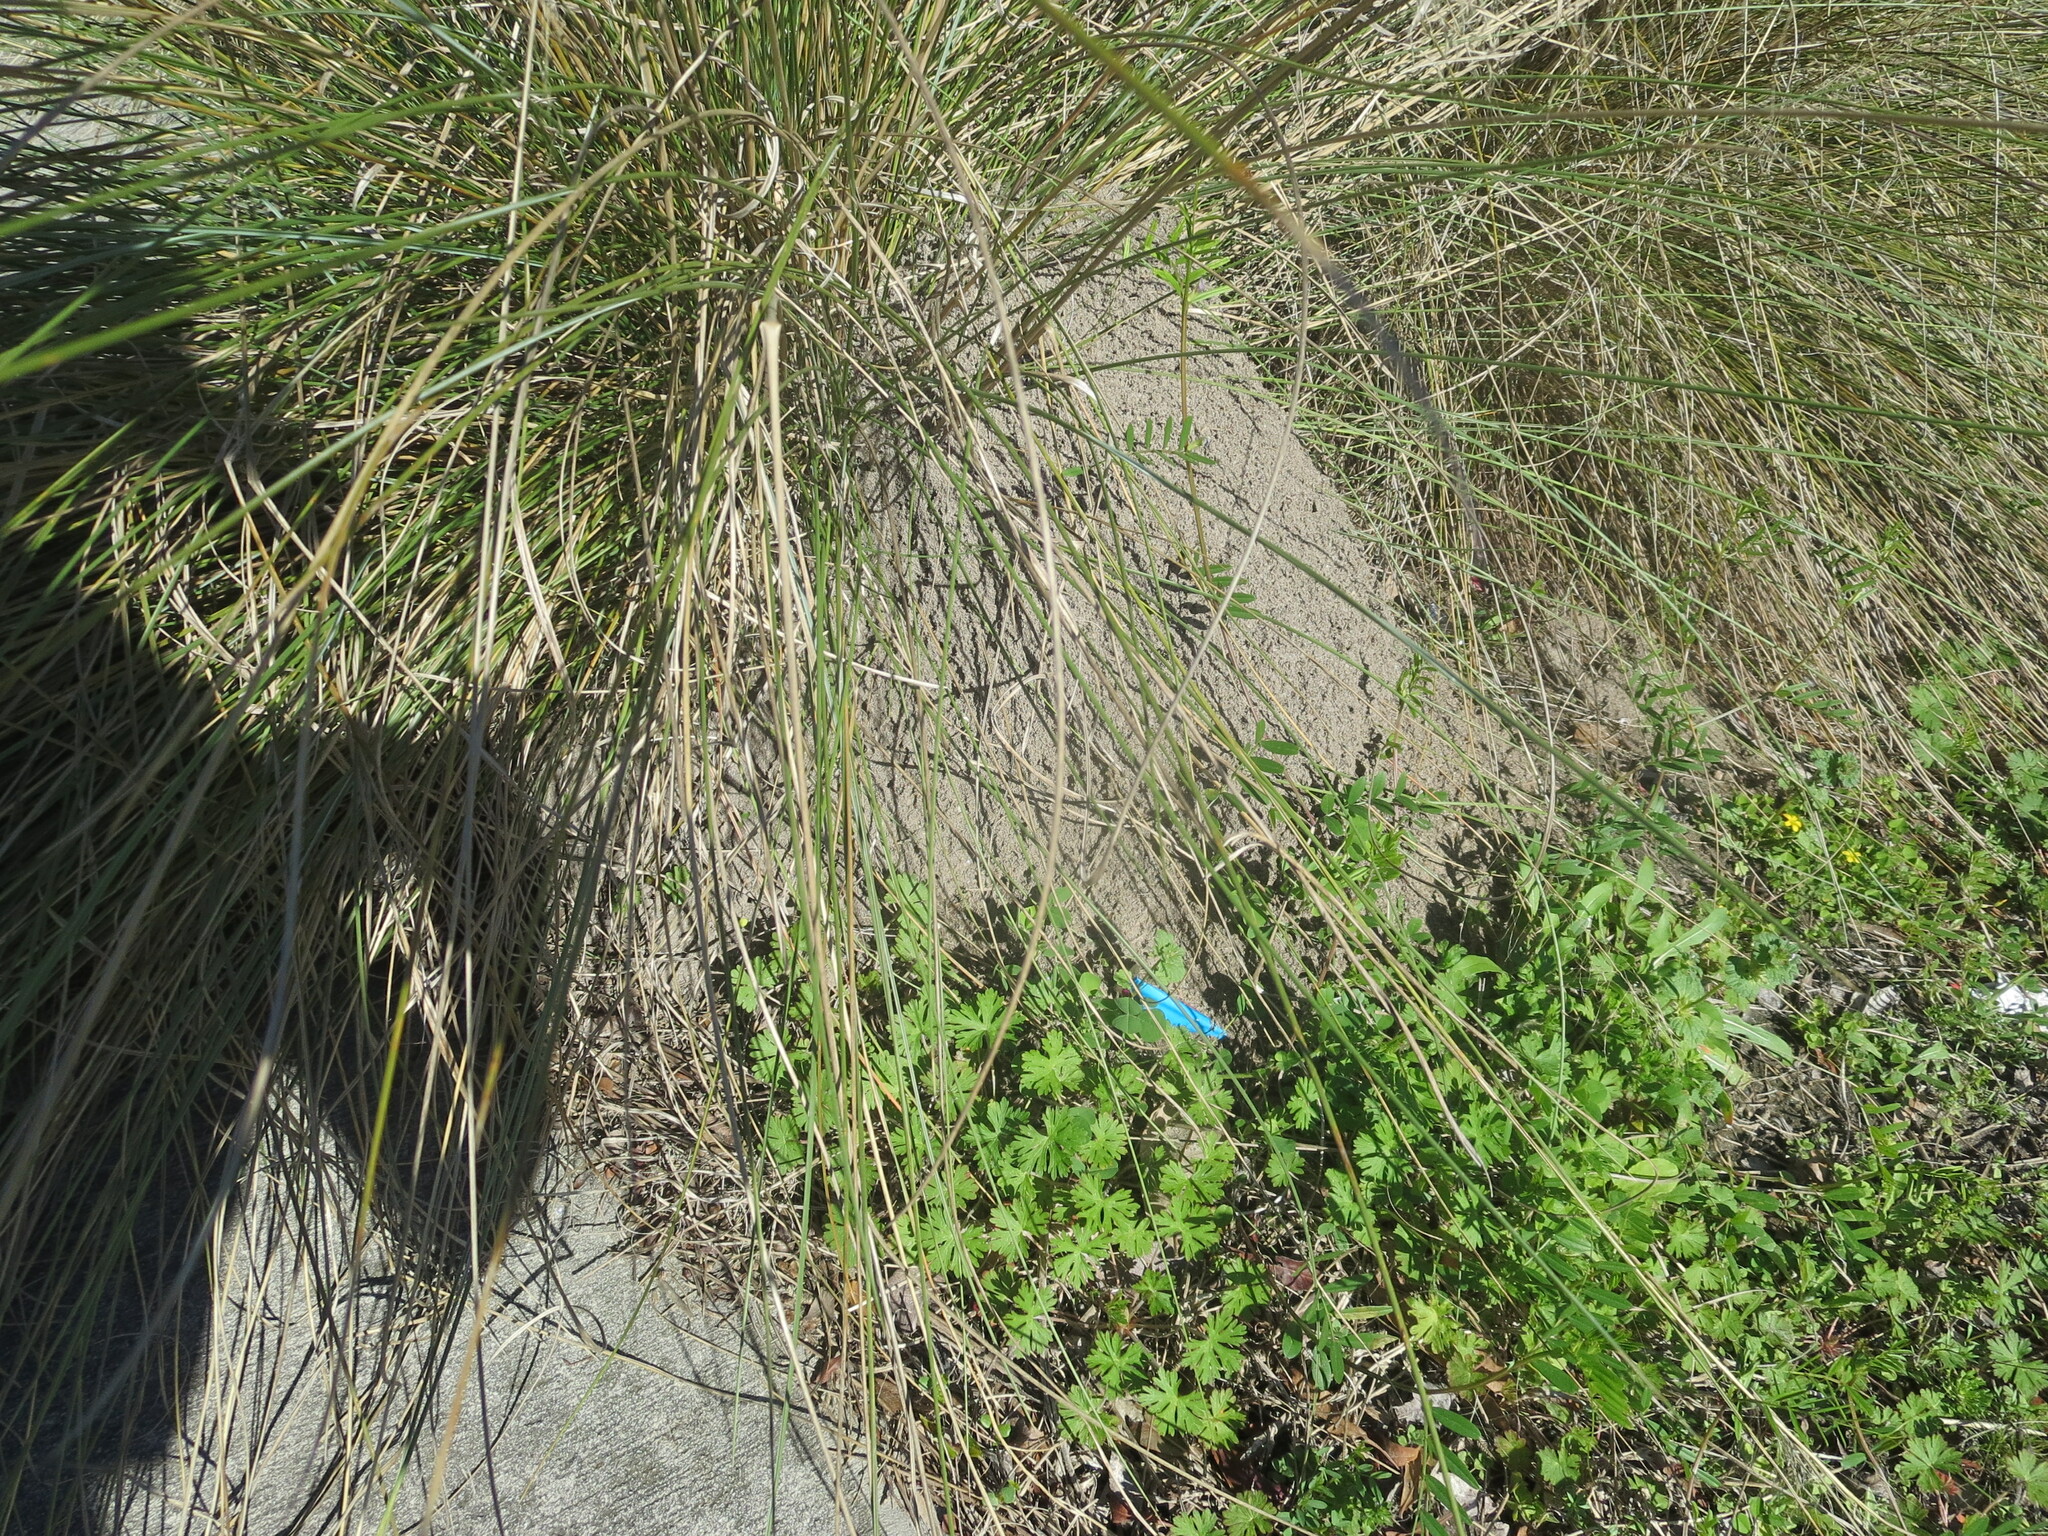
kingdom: Animalia
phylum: Arthropoda
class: Insecta
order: Hymenoptera
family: Formicidae
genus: Solenopsis
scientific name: Solenopsis invicta
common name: Red imported fire ant
